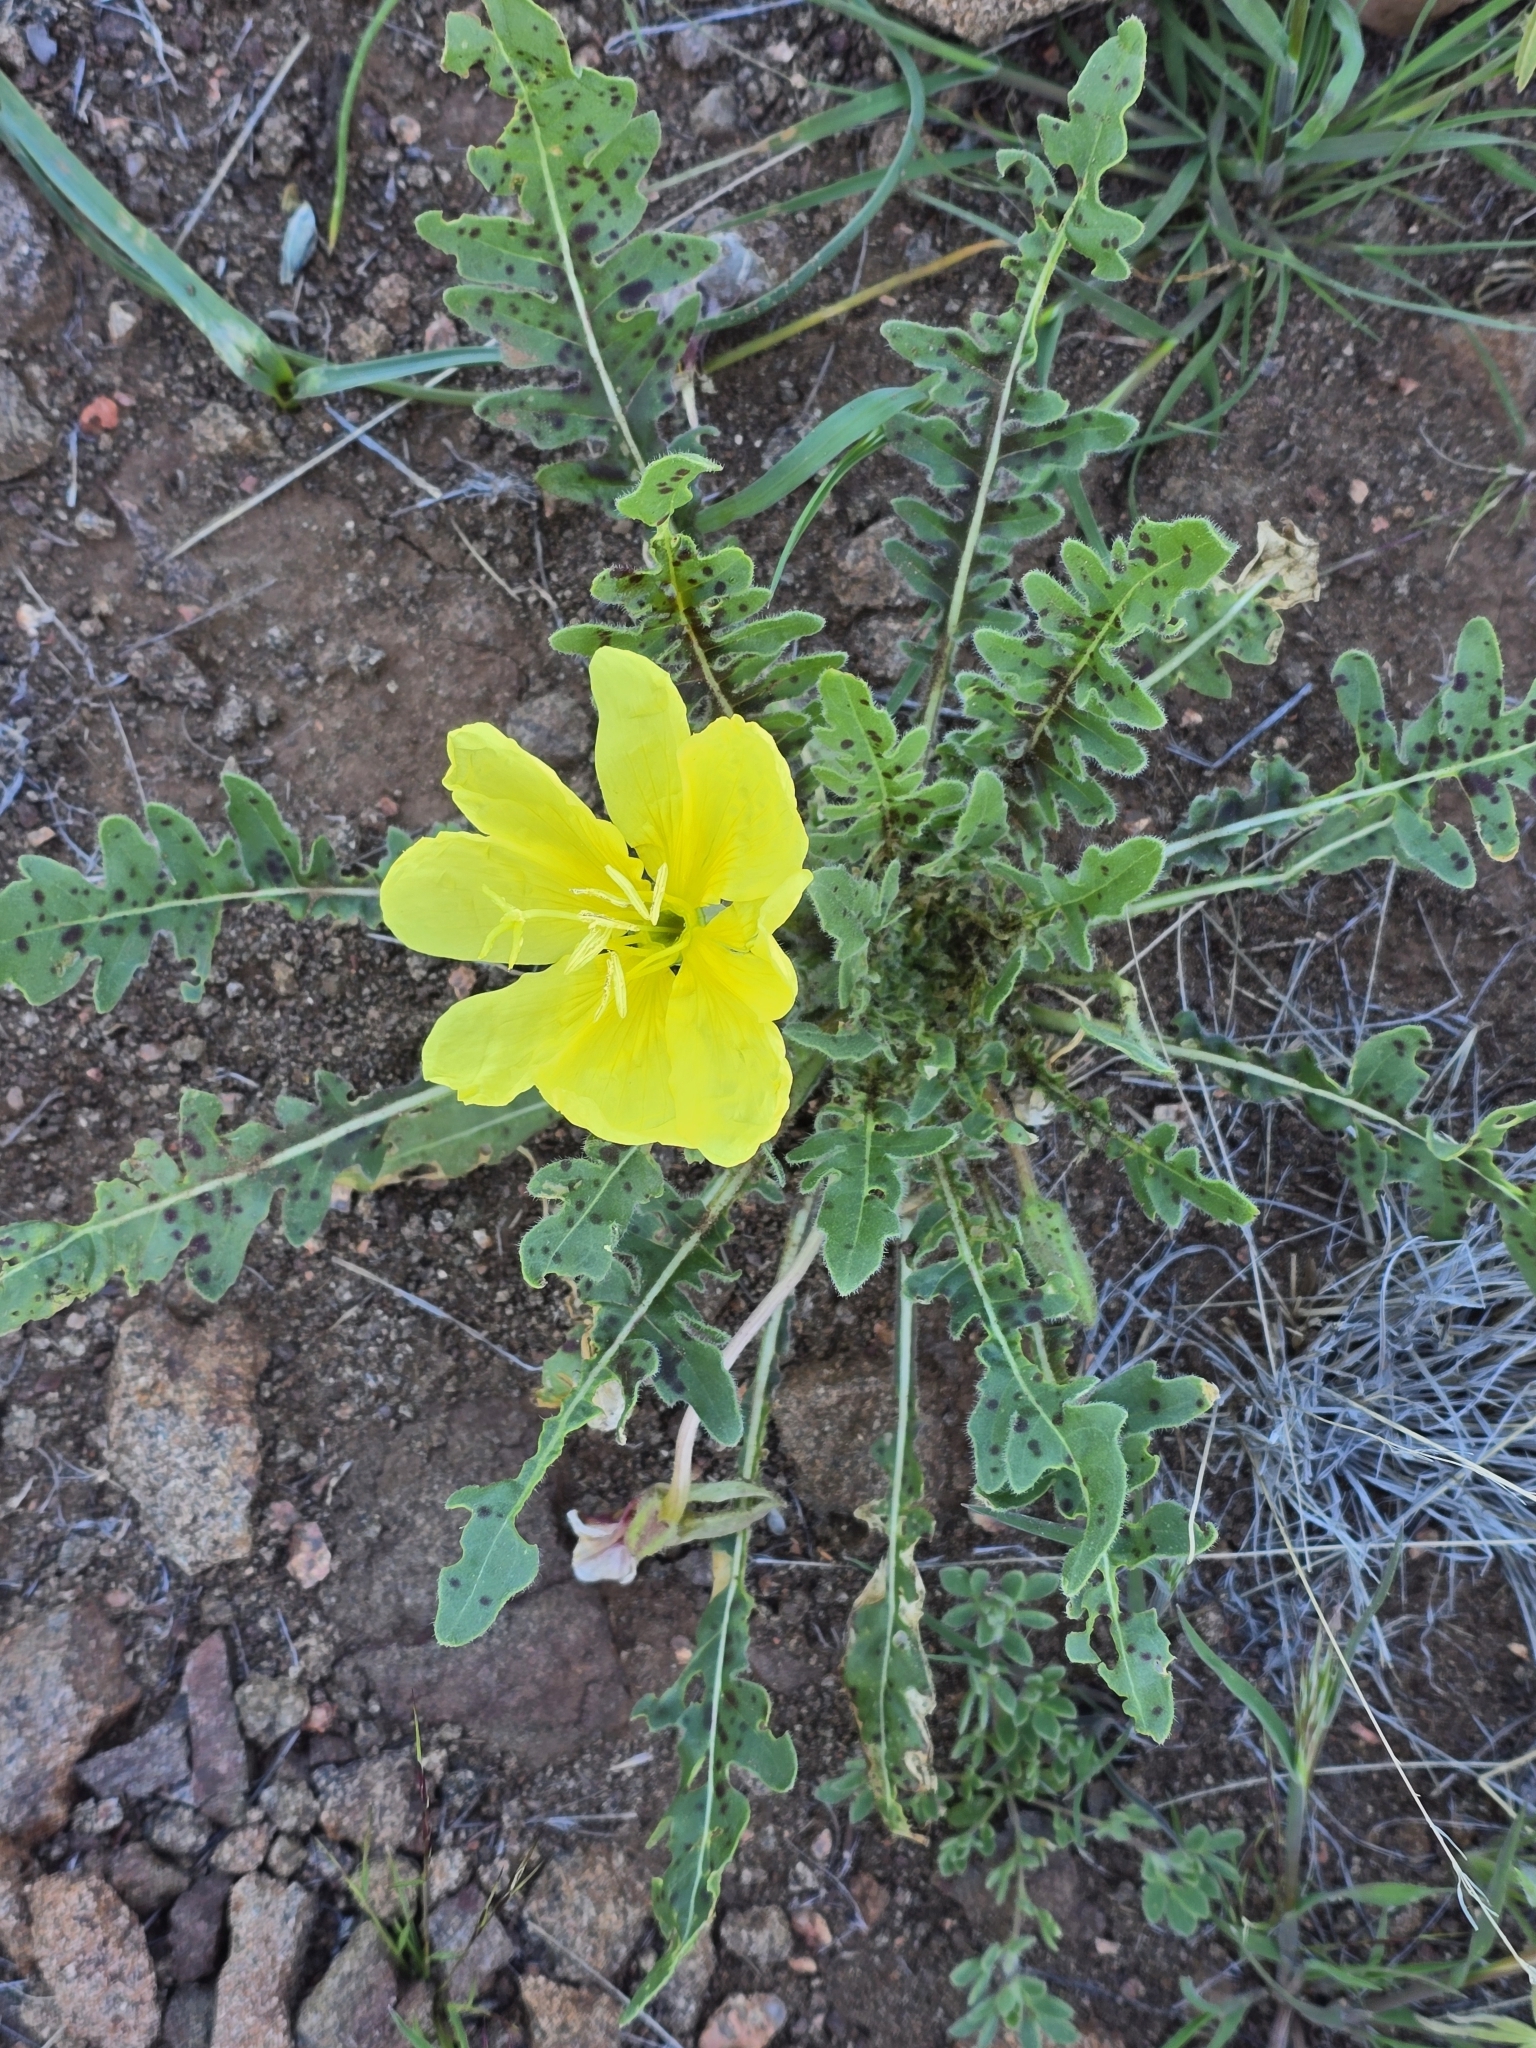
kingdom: Plantae
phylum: Tracheophyta
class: Magnoliopsida
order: Myrtales
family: Onagraceae
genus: Oenothera
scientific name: Oenothera primiveris
